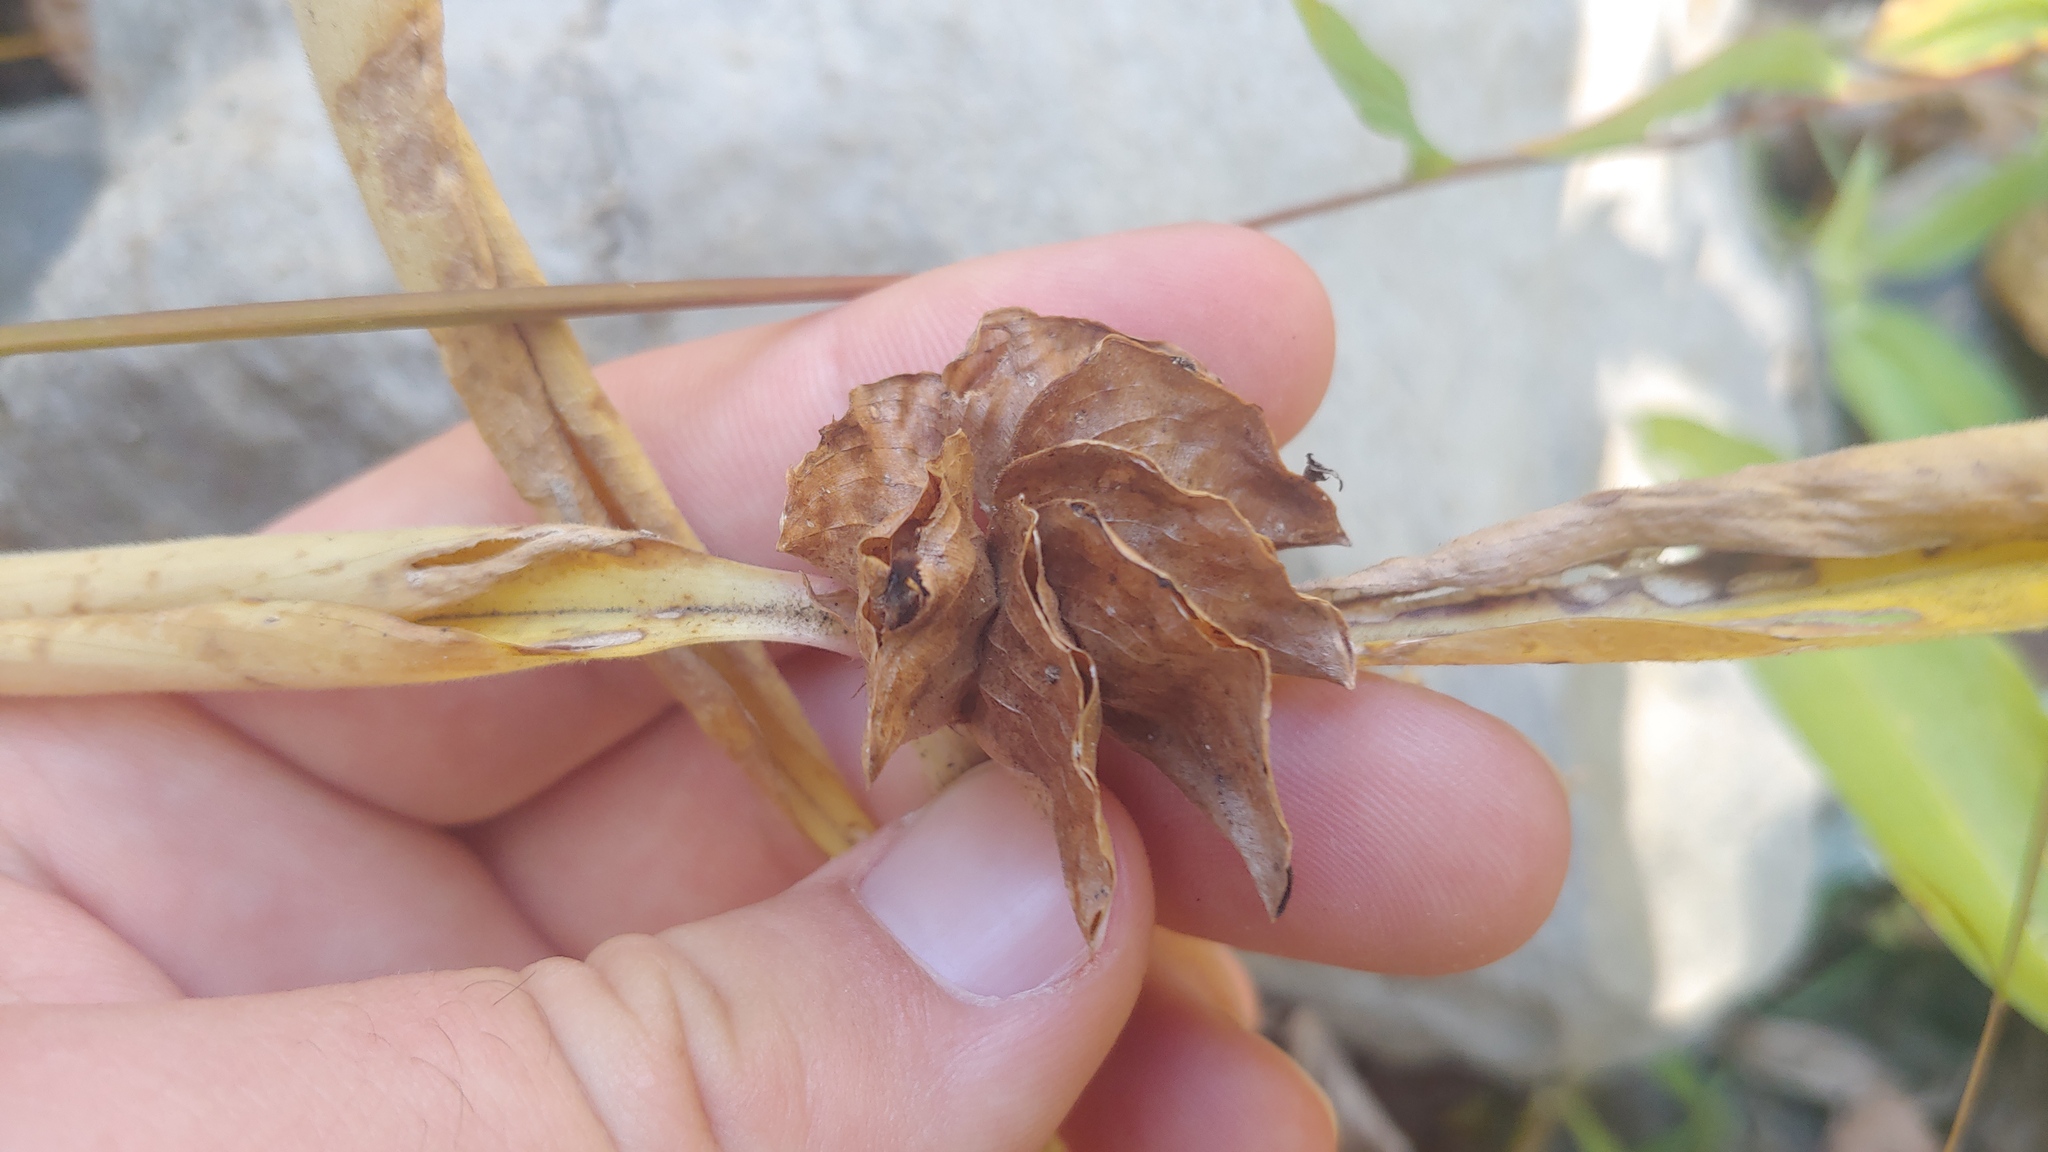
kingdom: Plantae
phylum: Tracheophyta
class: Liliopsida
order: Commelinales
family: Commelinaceae
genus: Commelina
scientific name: Commelina virginica
